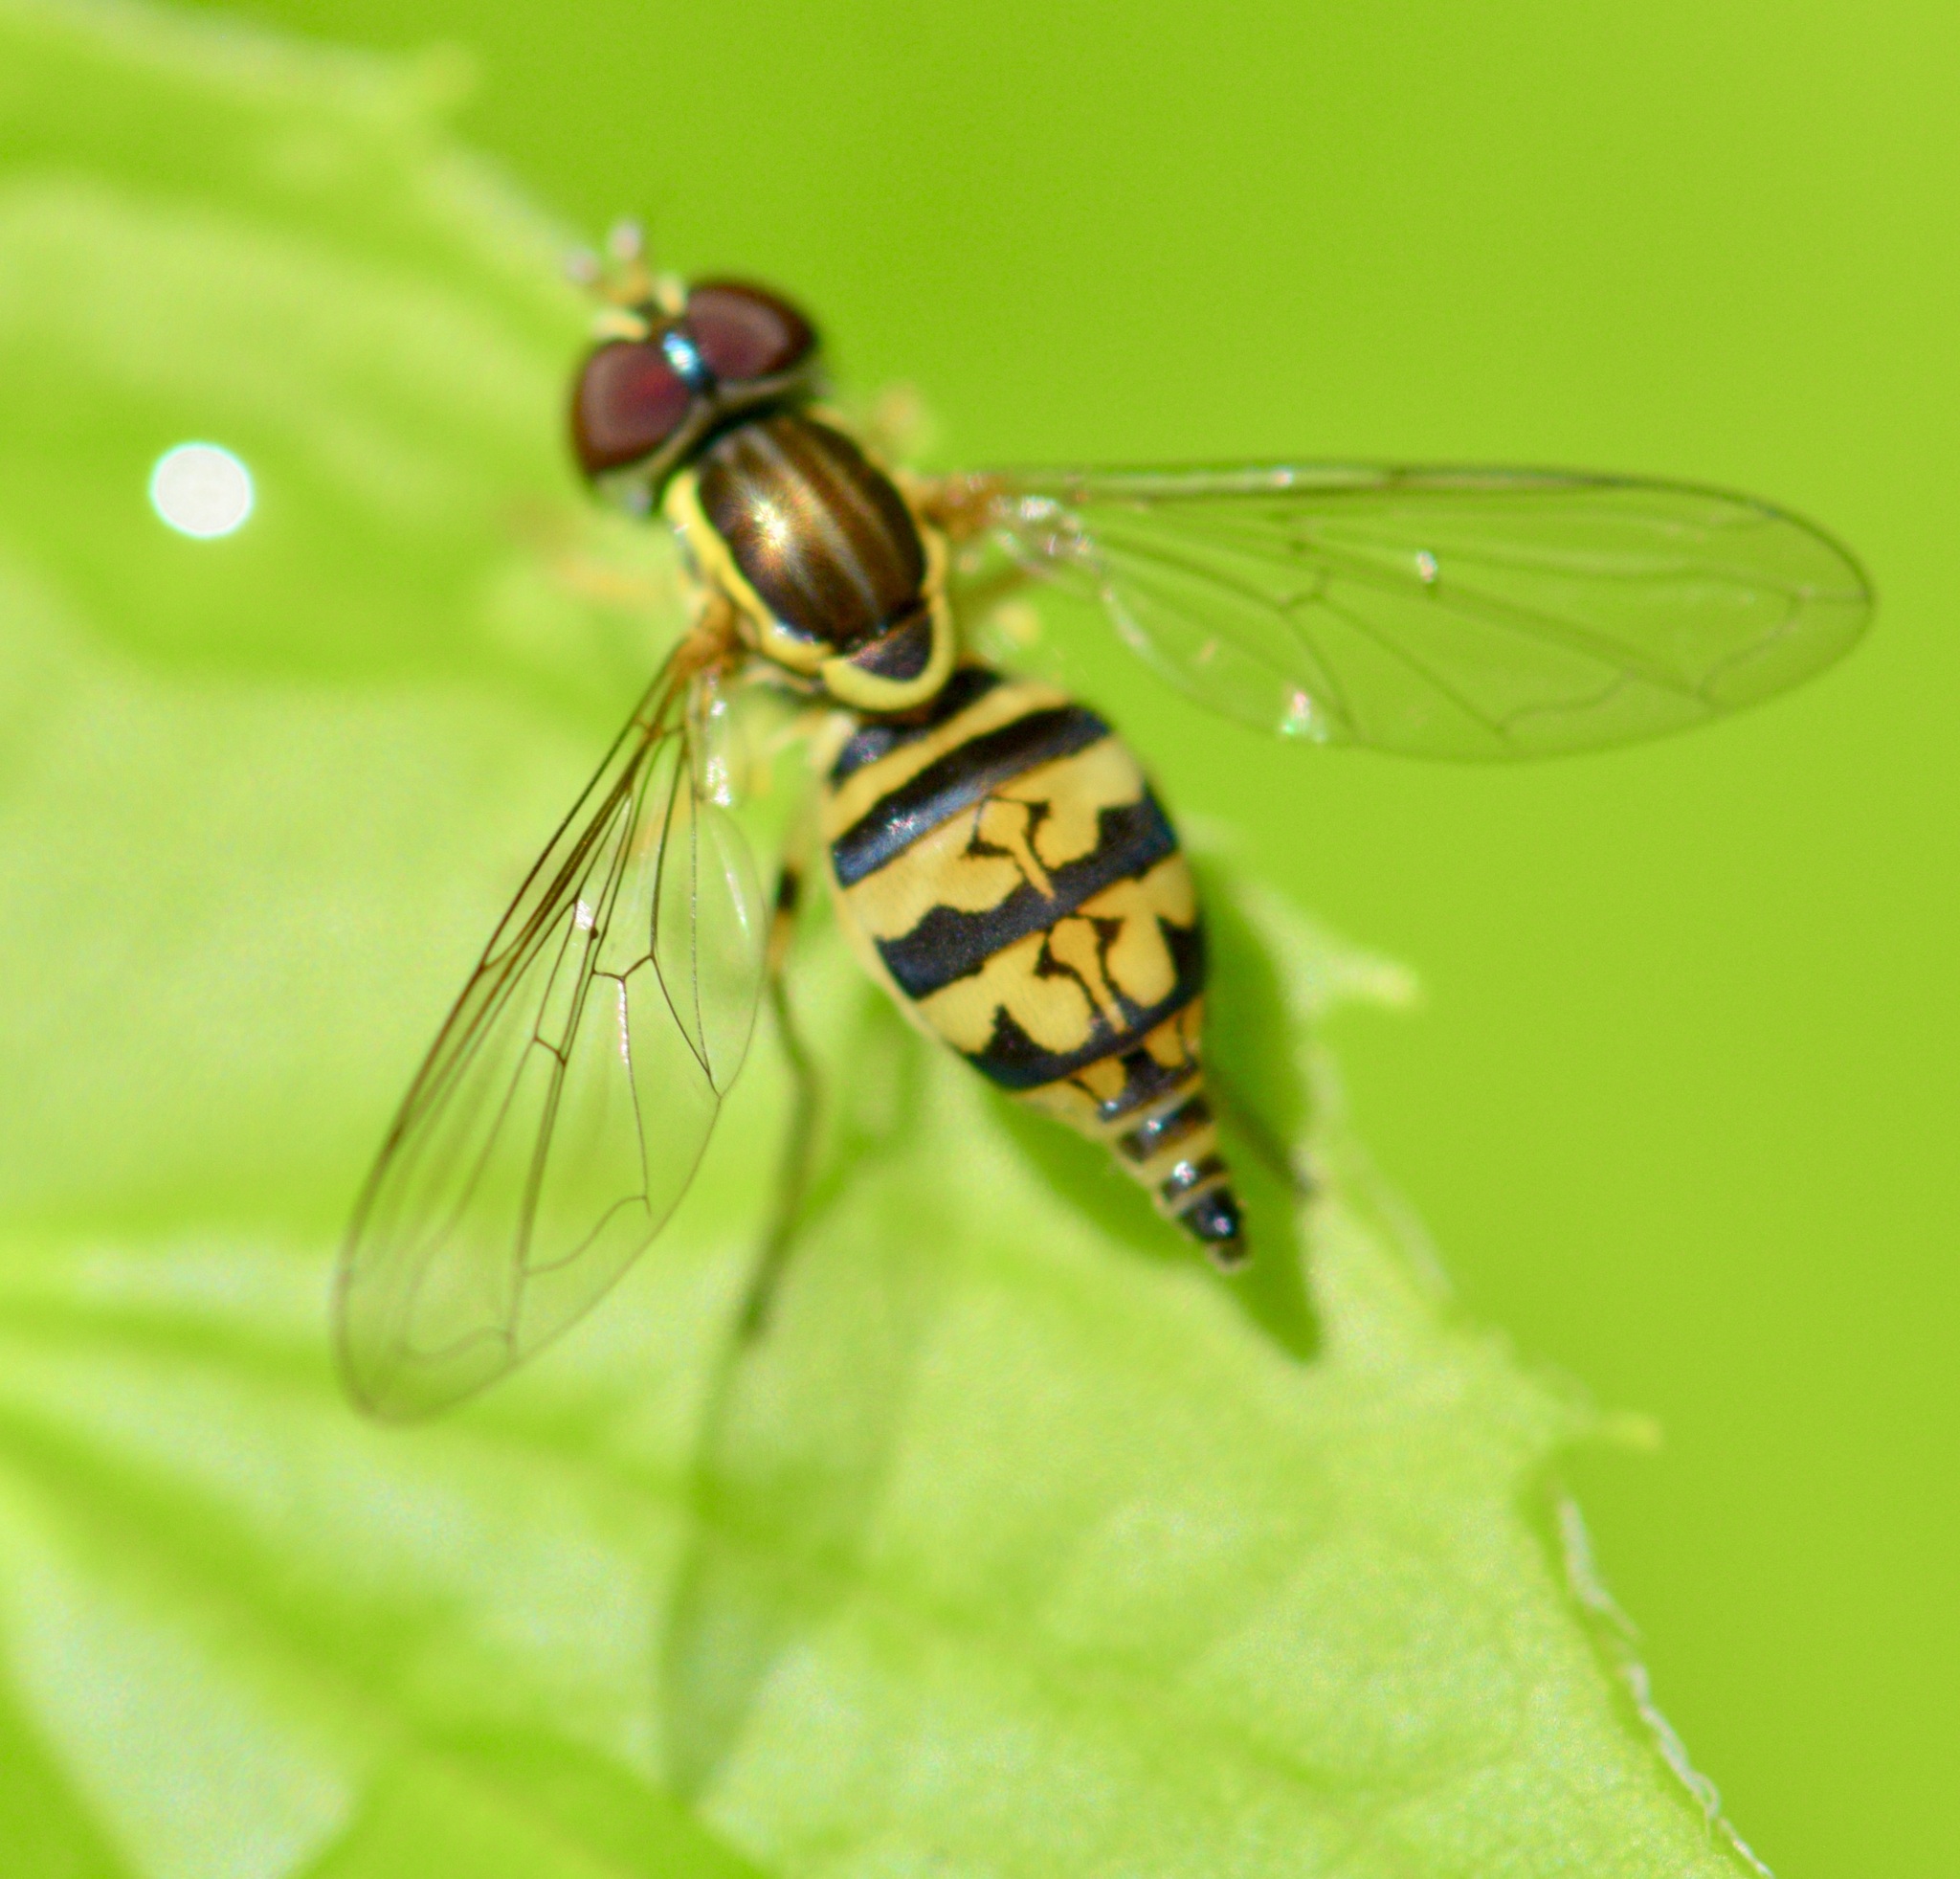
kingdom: Animalia
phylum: Arthropoda
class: Insecta
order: Diptera
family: Syrphidae
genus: Toxomerus
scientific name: Toxomerus geminatus
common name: Eastern calligrapher
